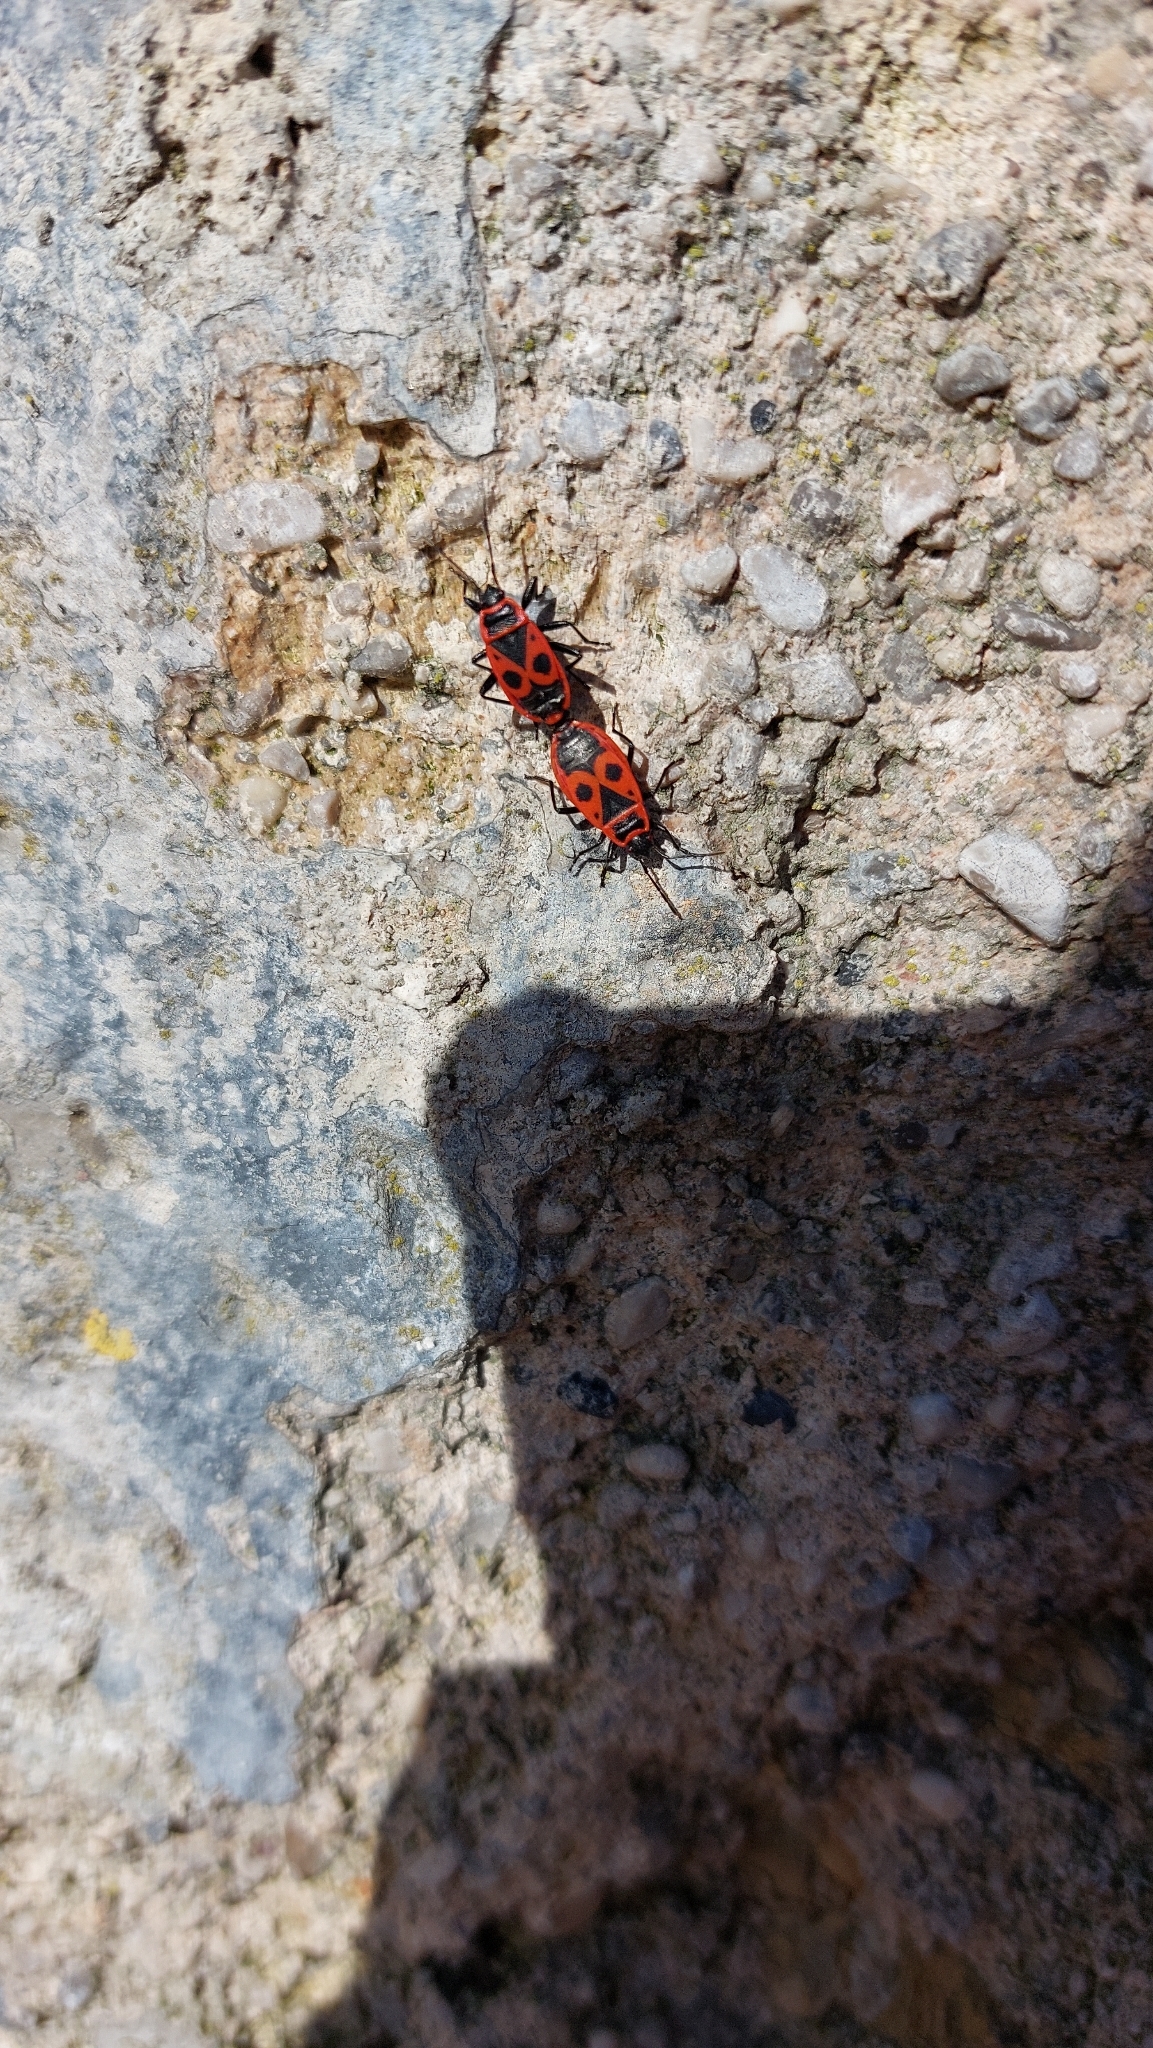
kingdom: Animalia
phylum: Arthropoda
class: Insecta
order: Hemiptera
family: Pyrrhocoridae
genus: Pyrrhocoris
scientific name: Pyrrhocoris apterus
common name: Firebug
